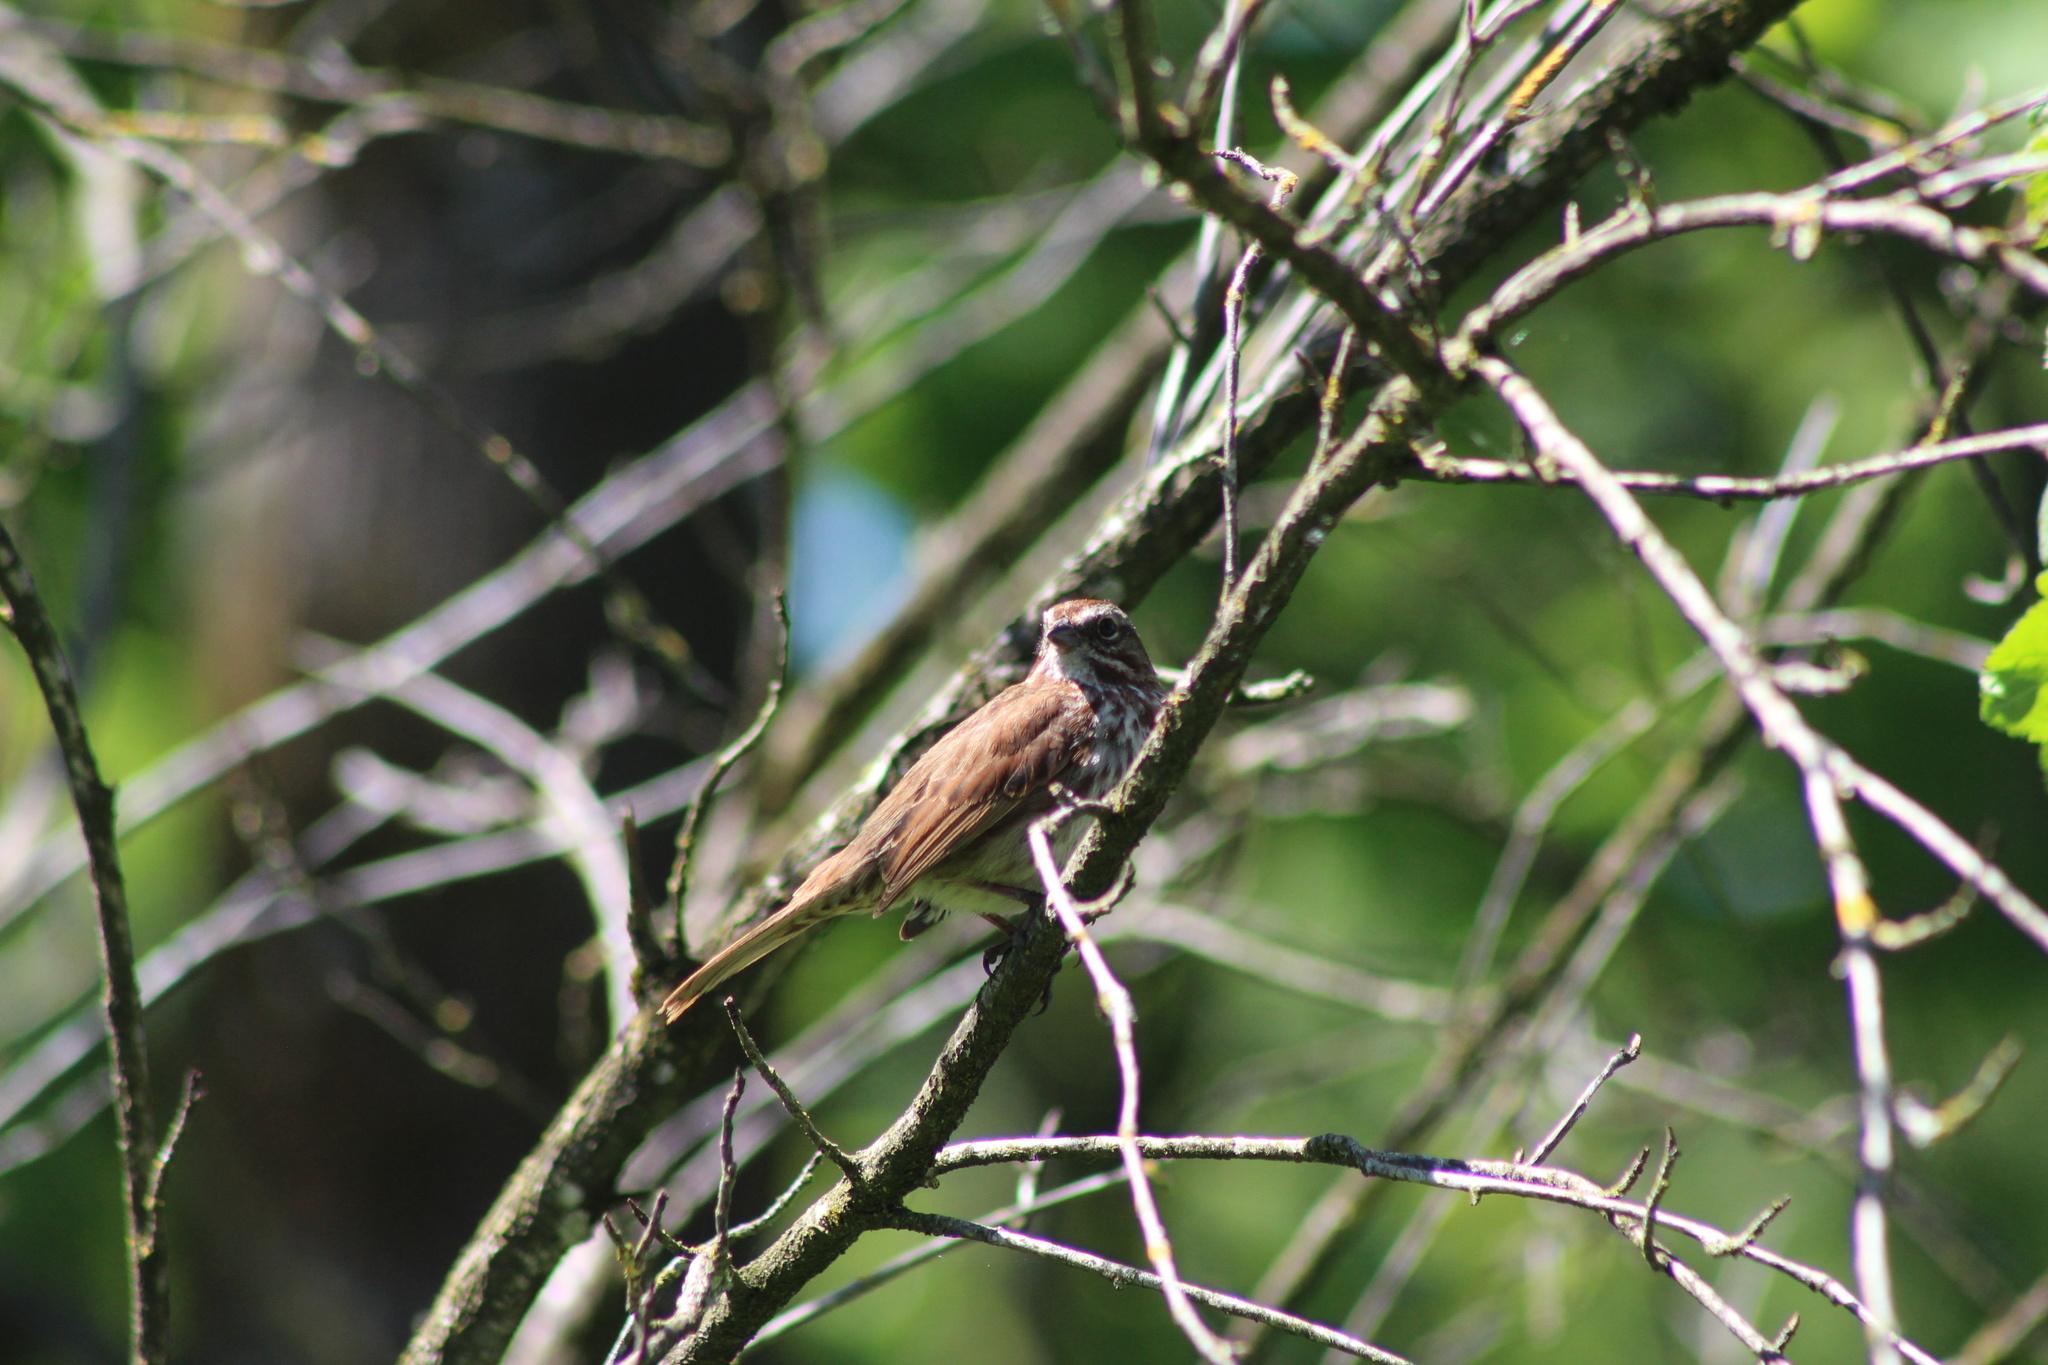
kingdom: Animalia
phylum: Chordata
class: Aves
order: Passeriformes
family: Passerellidae
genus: Melospiza
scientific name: Melospiza melodia
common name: Song sparrow
